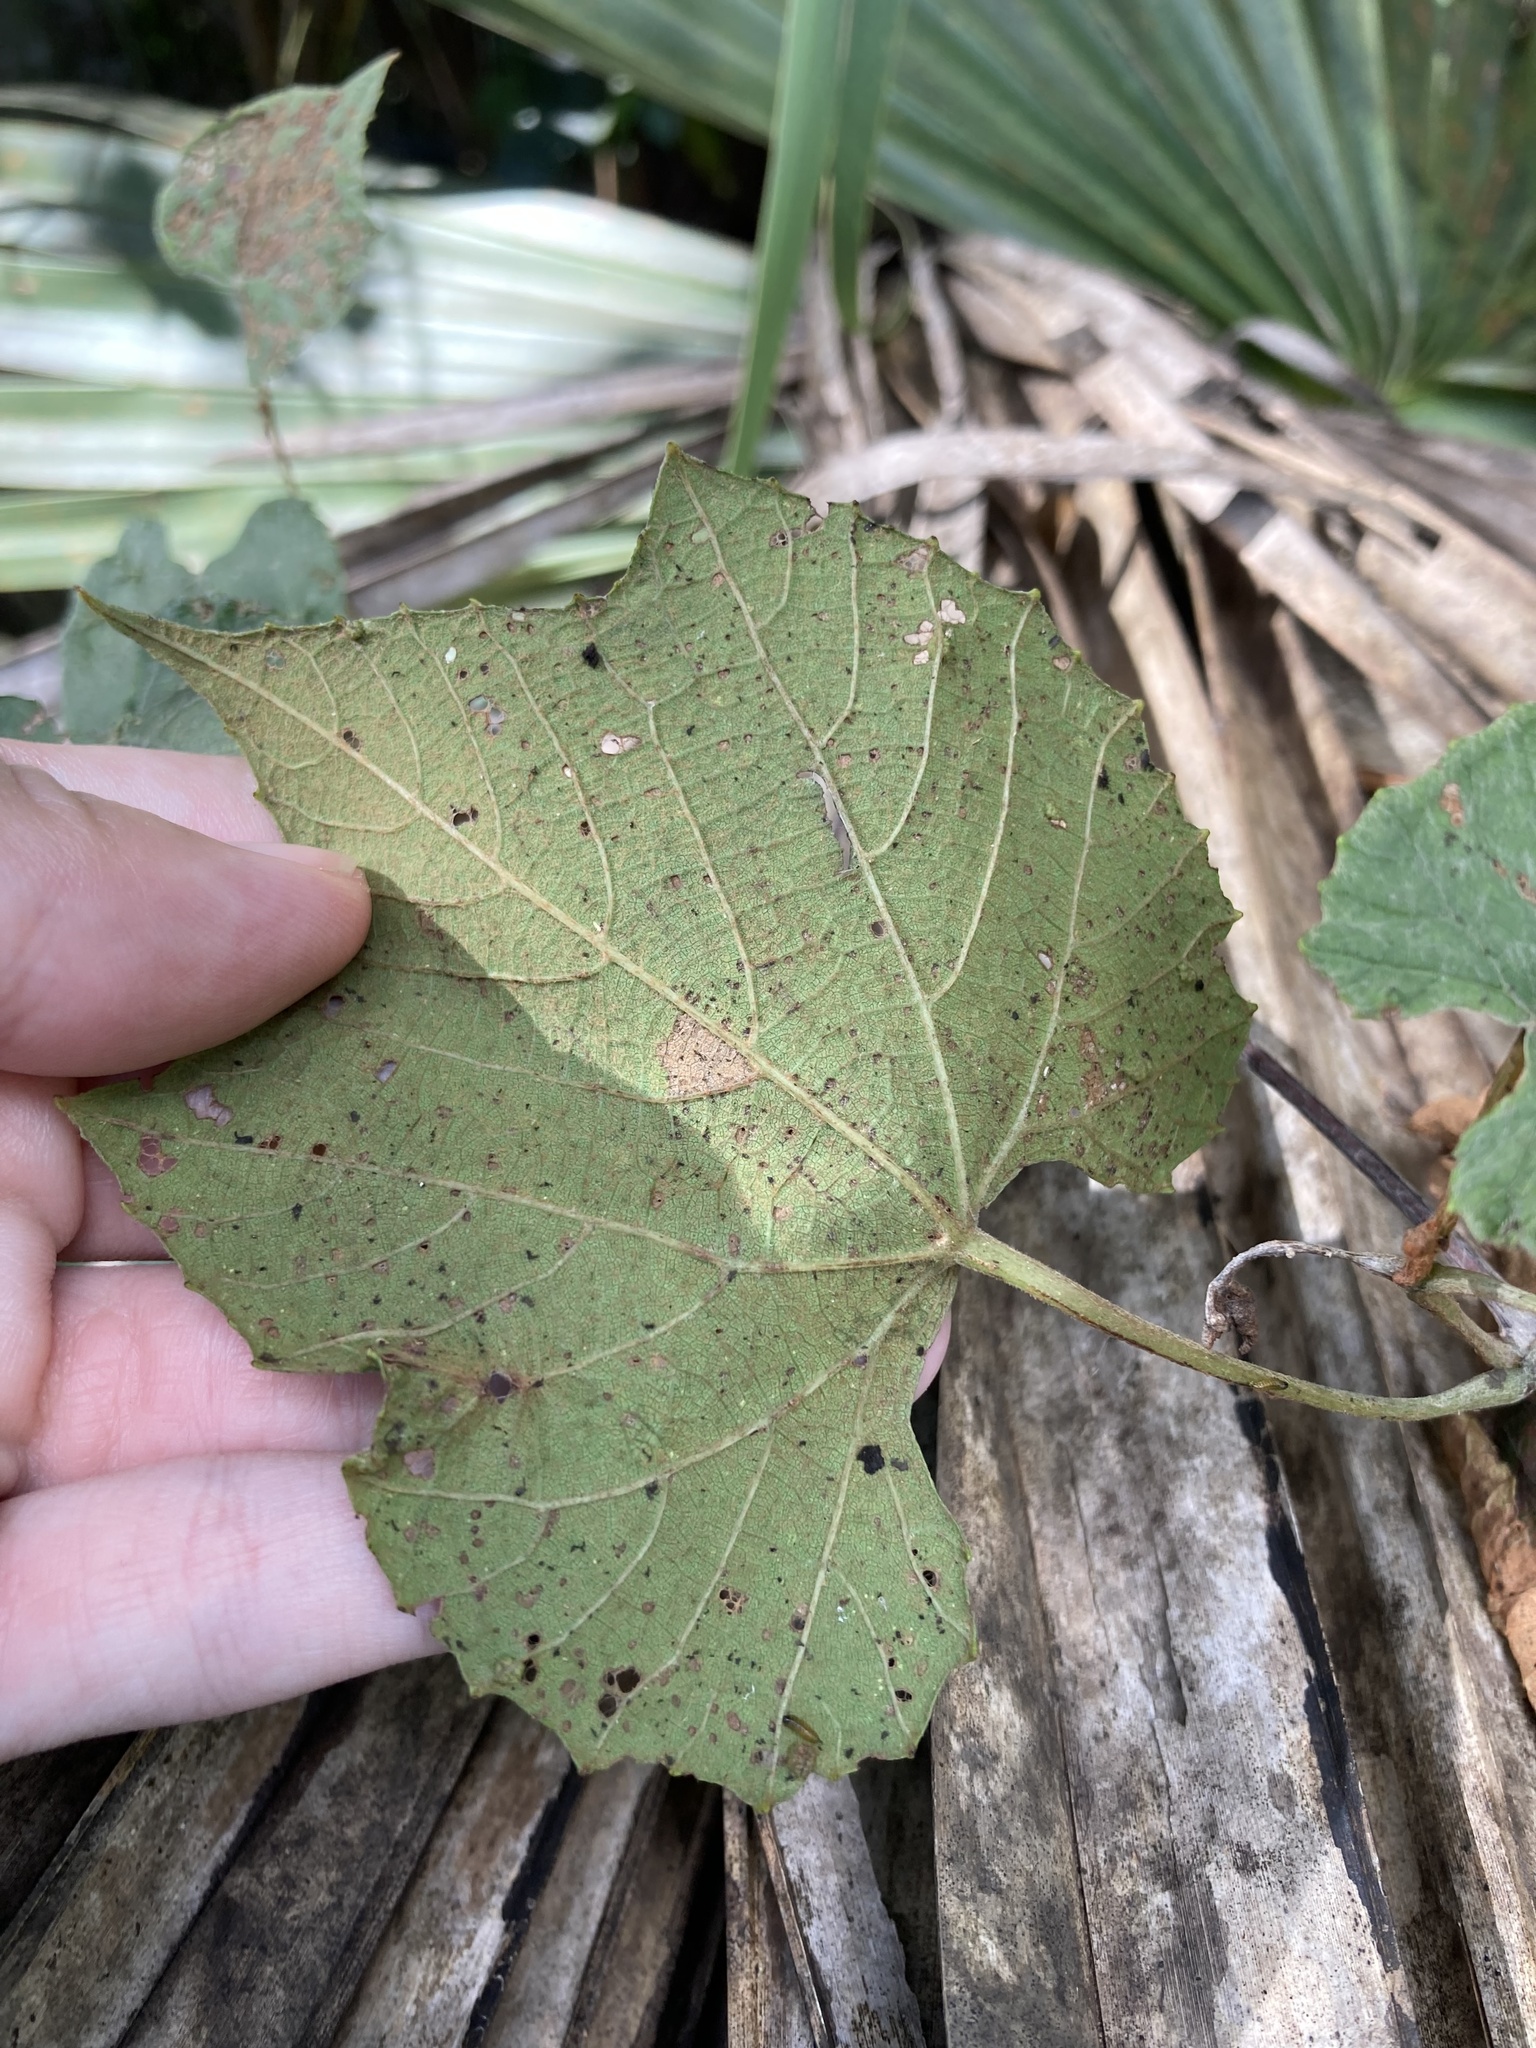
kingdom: Plantae
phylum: Tracheophyta
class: Magnoliopsida
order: Vitales
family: Vitaceae
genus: Vitis
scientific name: Vitis cinerea
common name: Ashy grape
